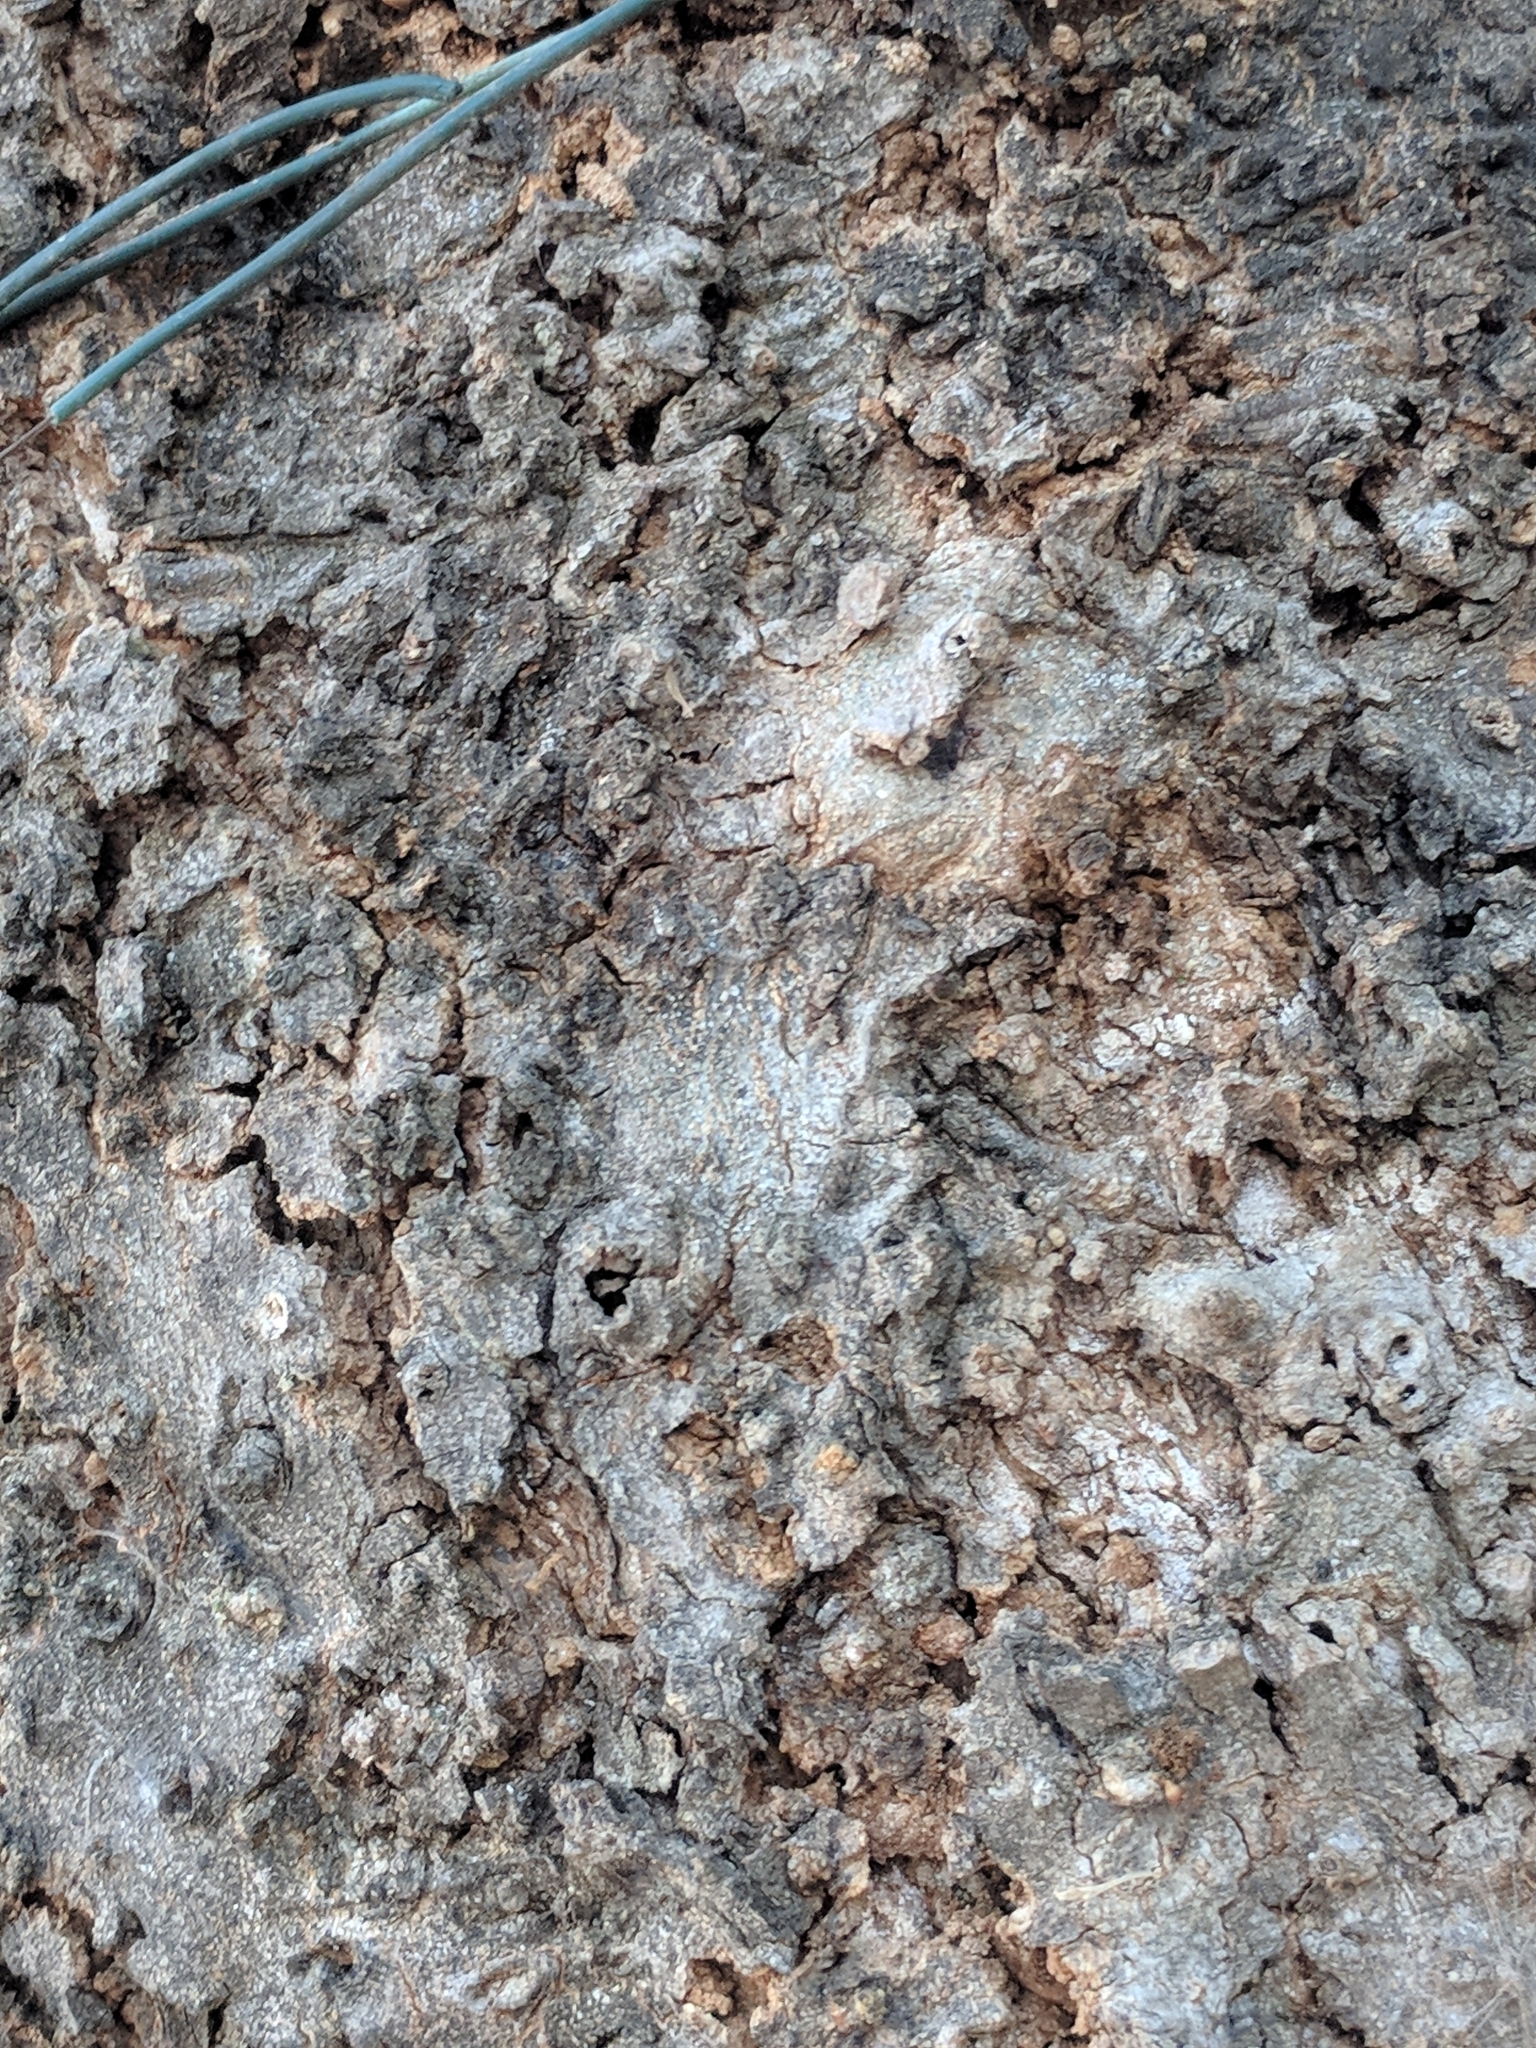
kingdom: Plantae
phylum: Tracheophyta
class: Magnoliopsida
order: Rosales
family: Cannabaceae
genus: Celtis
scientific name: Celtis laevigata
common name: Sugarberry
